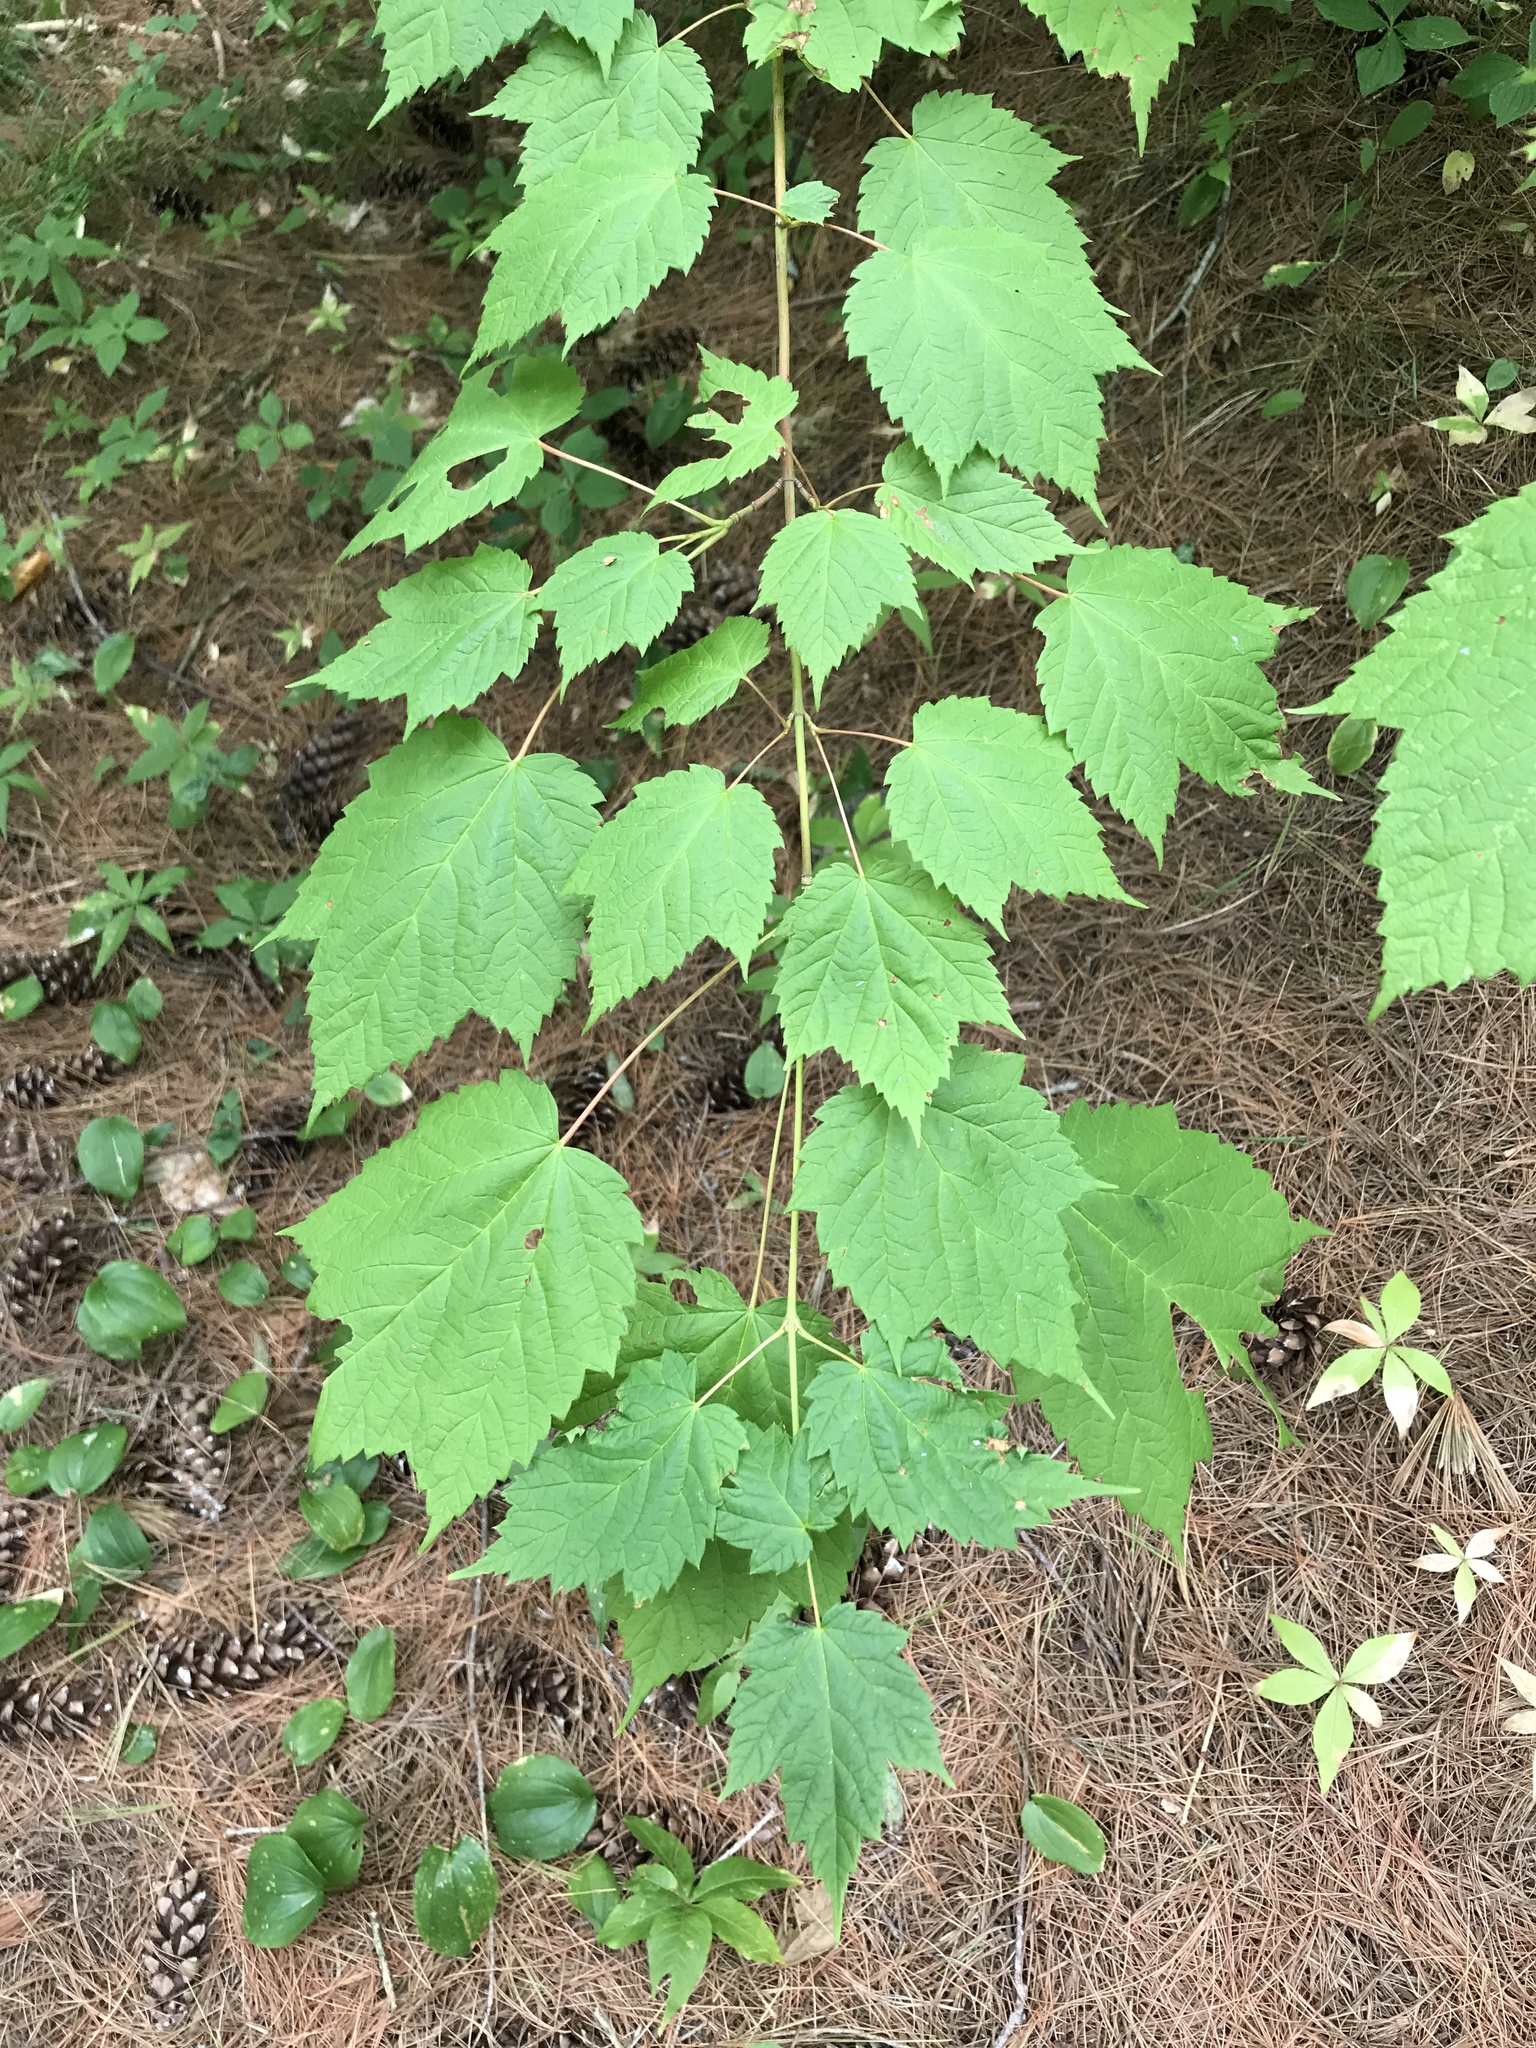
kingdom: Plantae
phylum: Tracheophyta
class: Magnoliopsida
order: Sapindales
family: Sapindaceae
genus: Acer
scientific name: Acer spicatum
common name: Mountain maple
